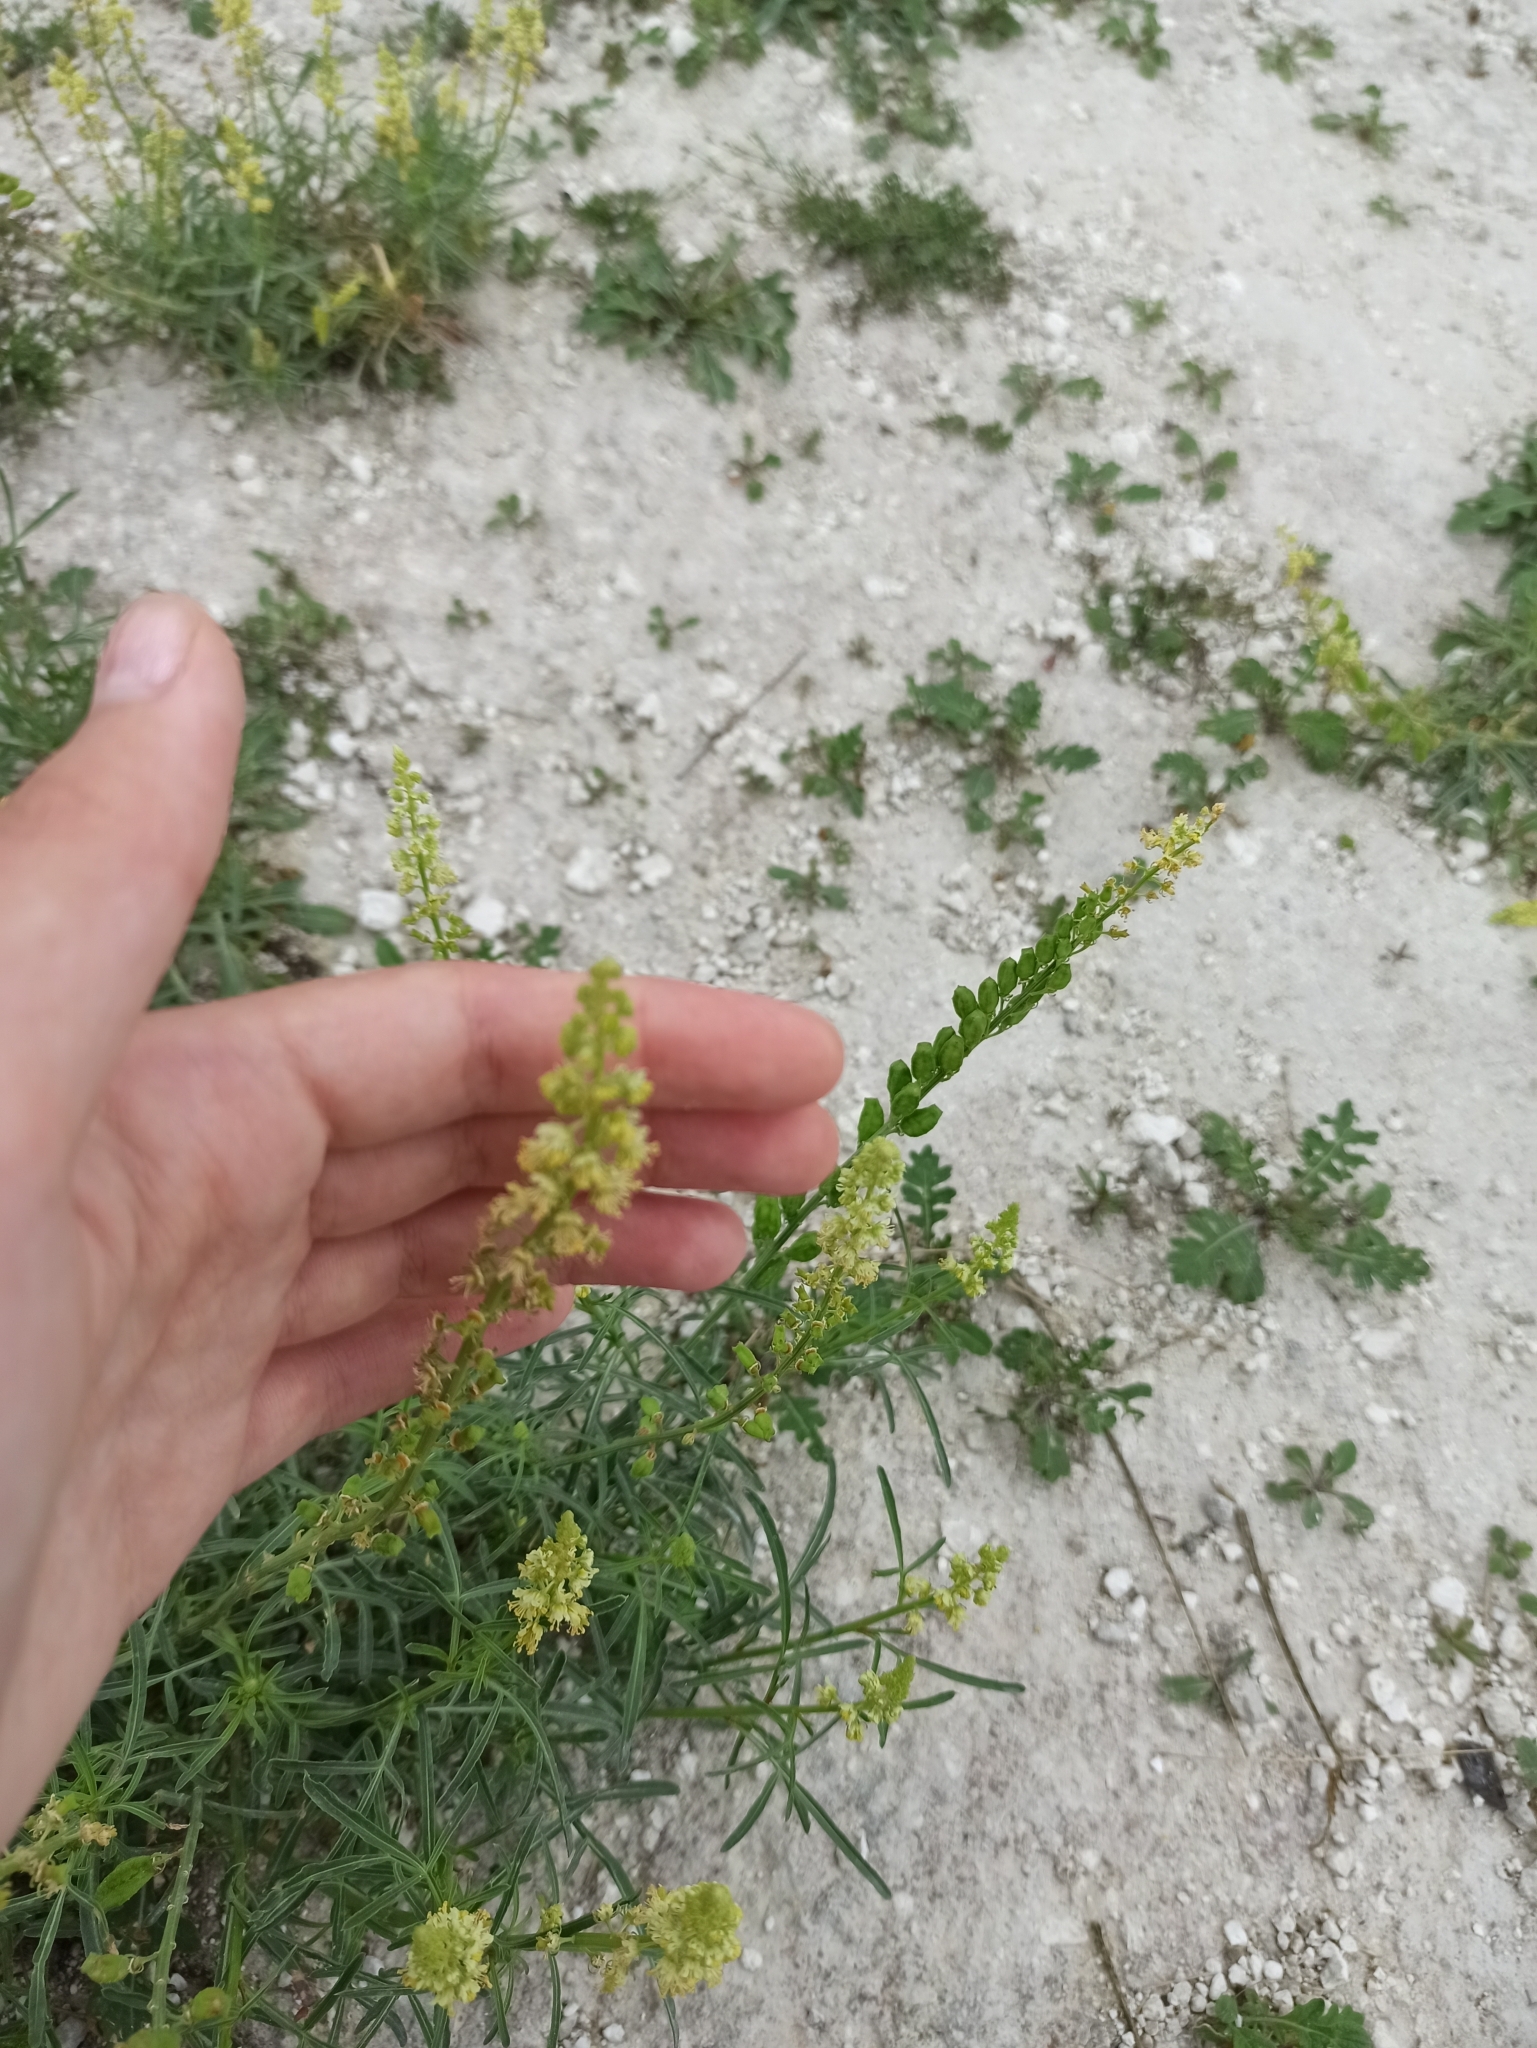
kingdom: Plantae
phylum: Tracheophyta
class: Magnoliopsida
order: Brassicales
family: Resedaceae
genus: Reseda
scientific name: Reseda lutea
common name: Wild mignonette
